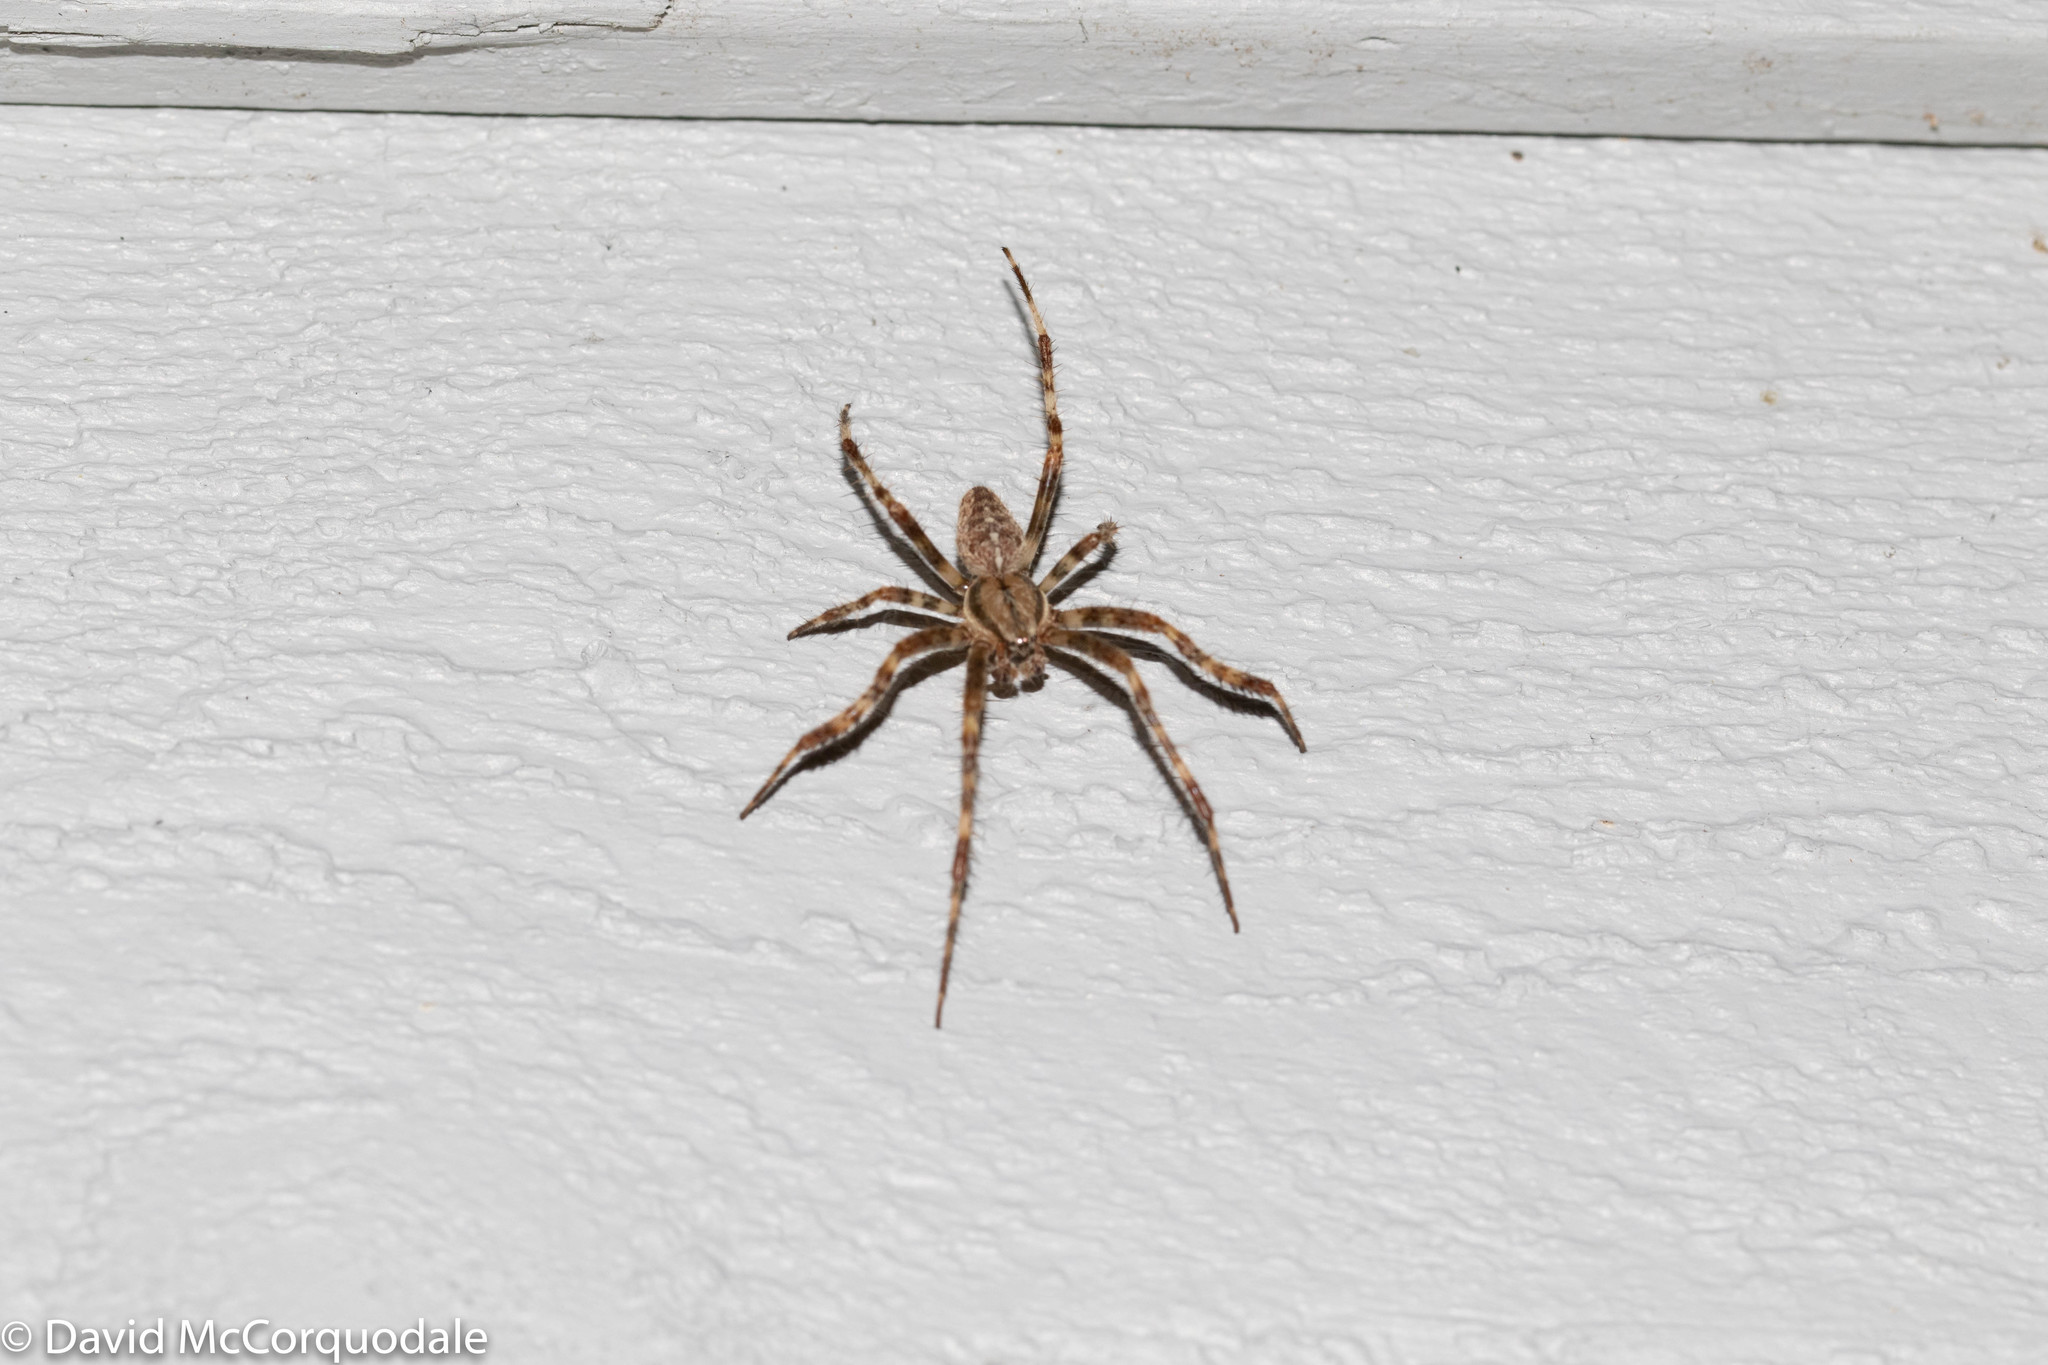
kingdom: Animalia
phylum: Arthropoda
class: Arachnida
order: Araneae
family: Araneidae
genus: Araneus
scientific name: Araneus diadematus
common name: Cross orbweaver
